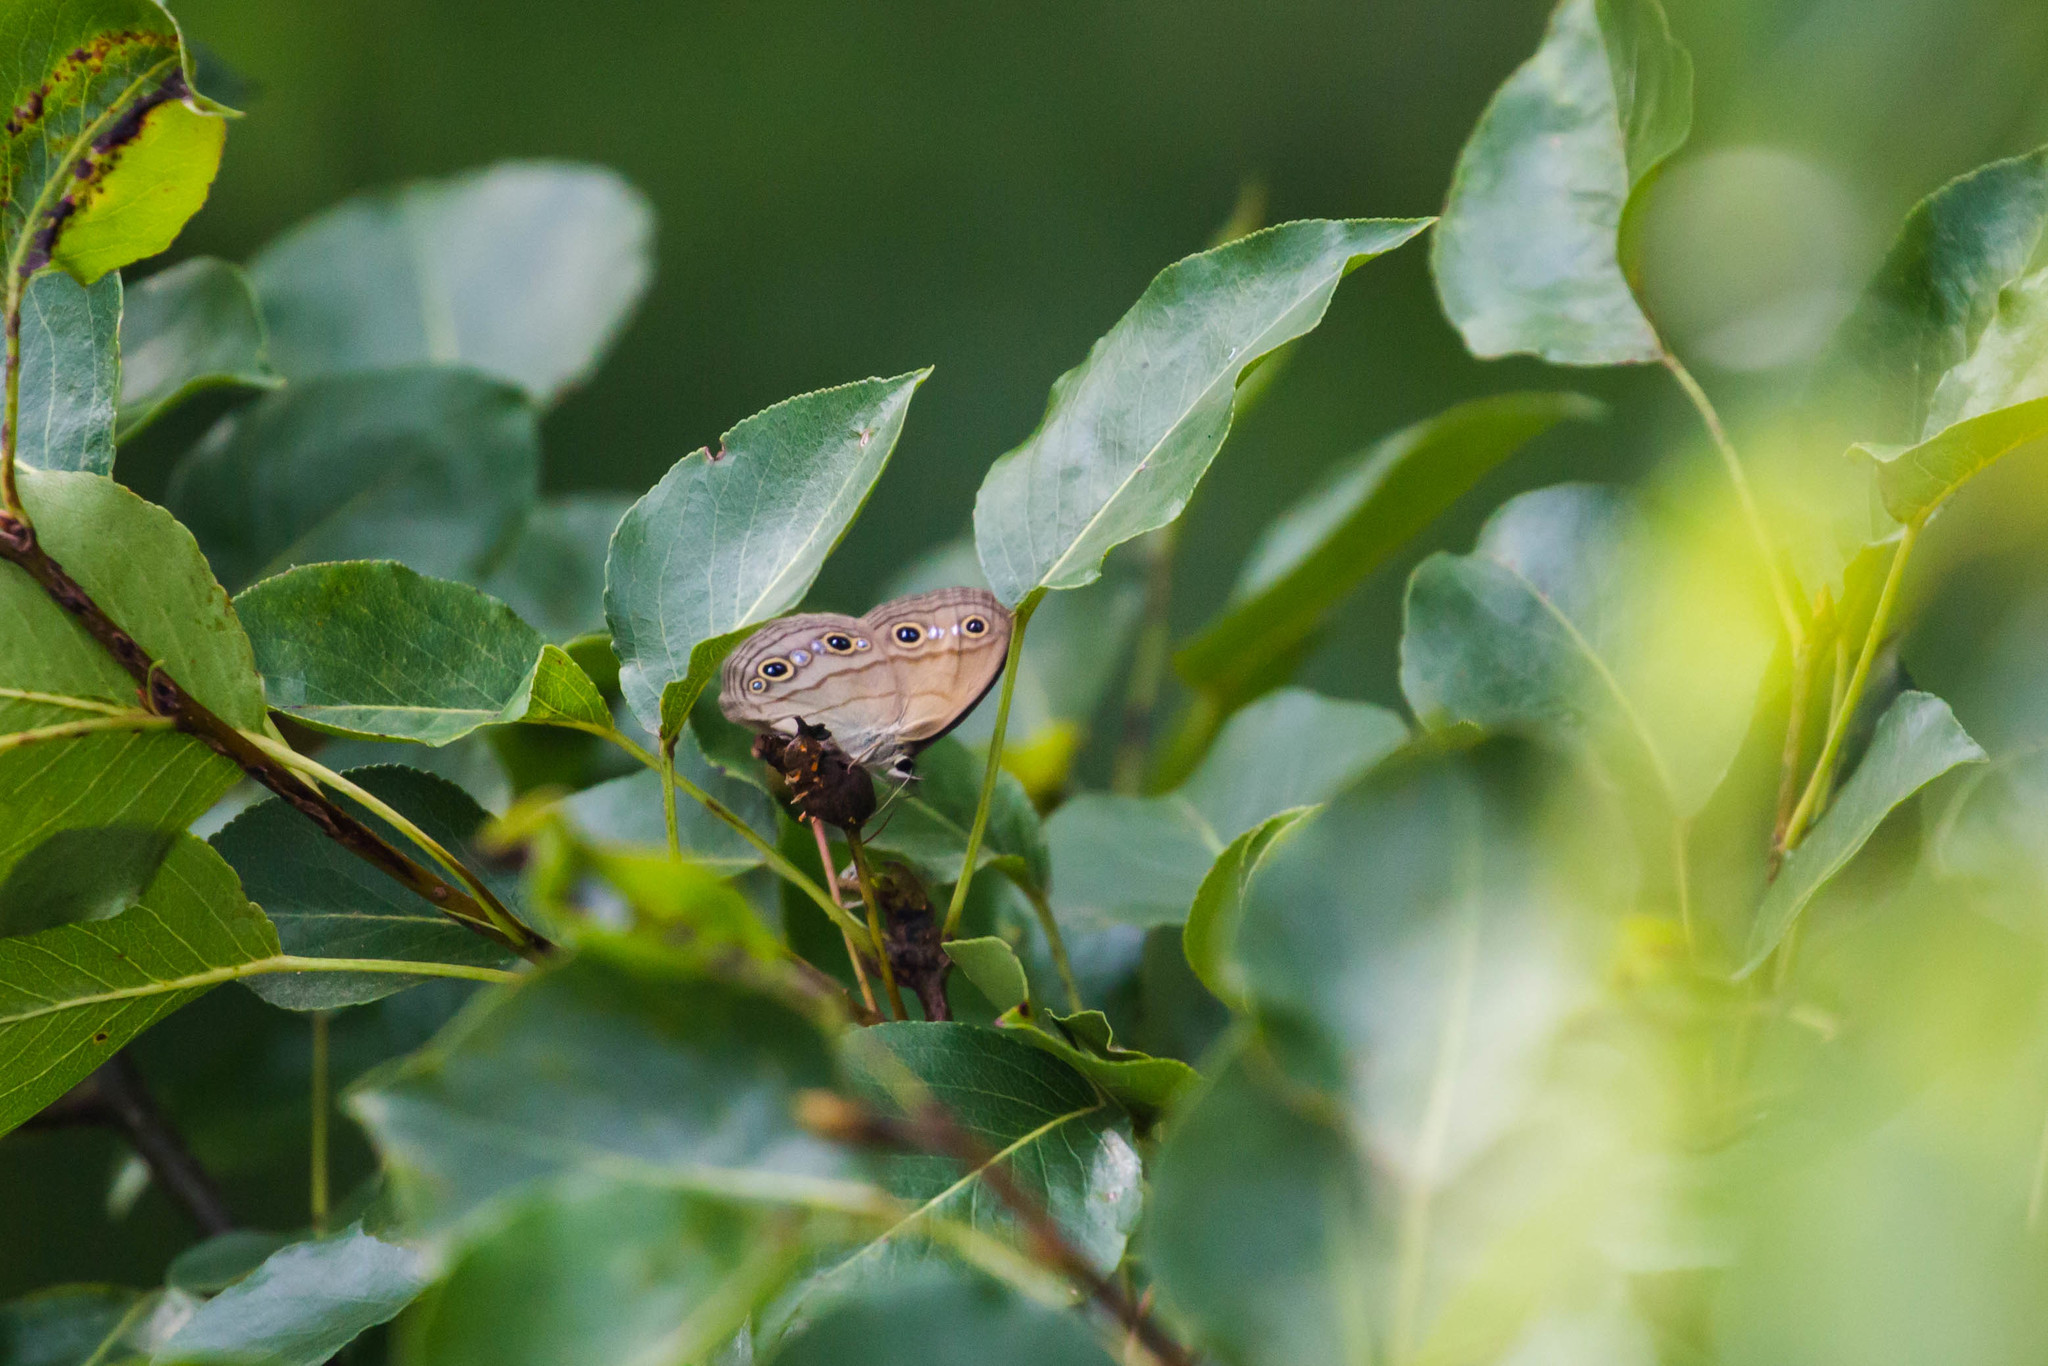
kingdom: Animalia
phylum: Arthropoda
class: Insecta
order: Lepidoptera
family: Nymphalidae
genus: Euptychia
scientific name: Euptychia cymela
